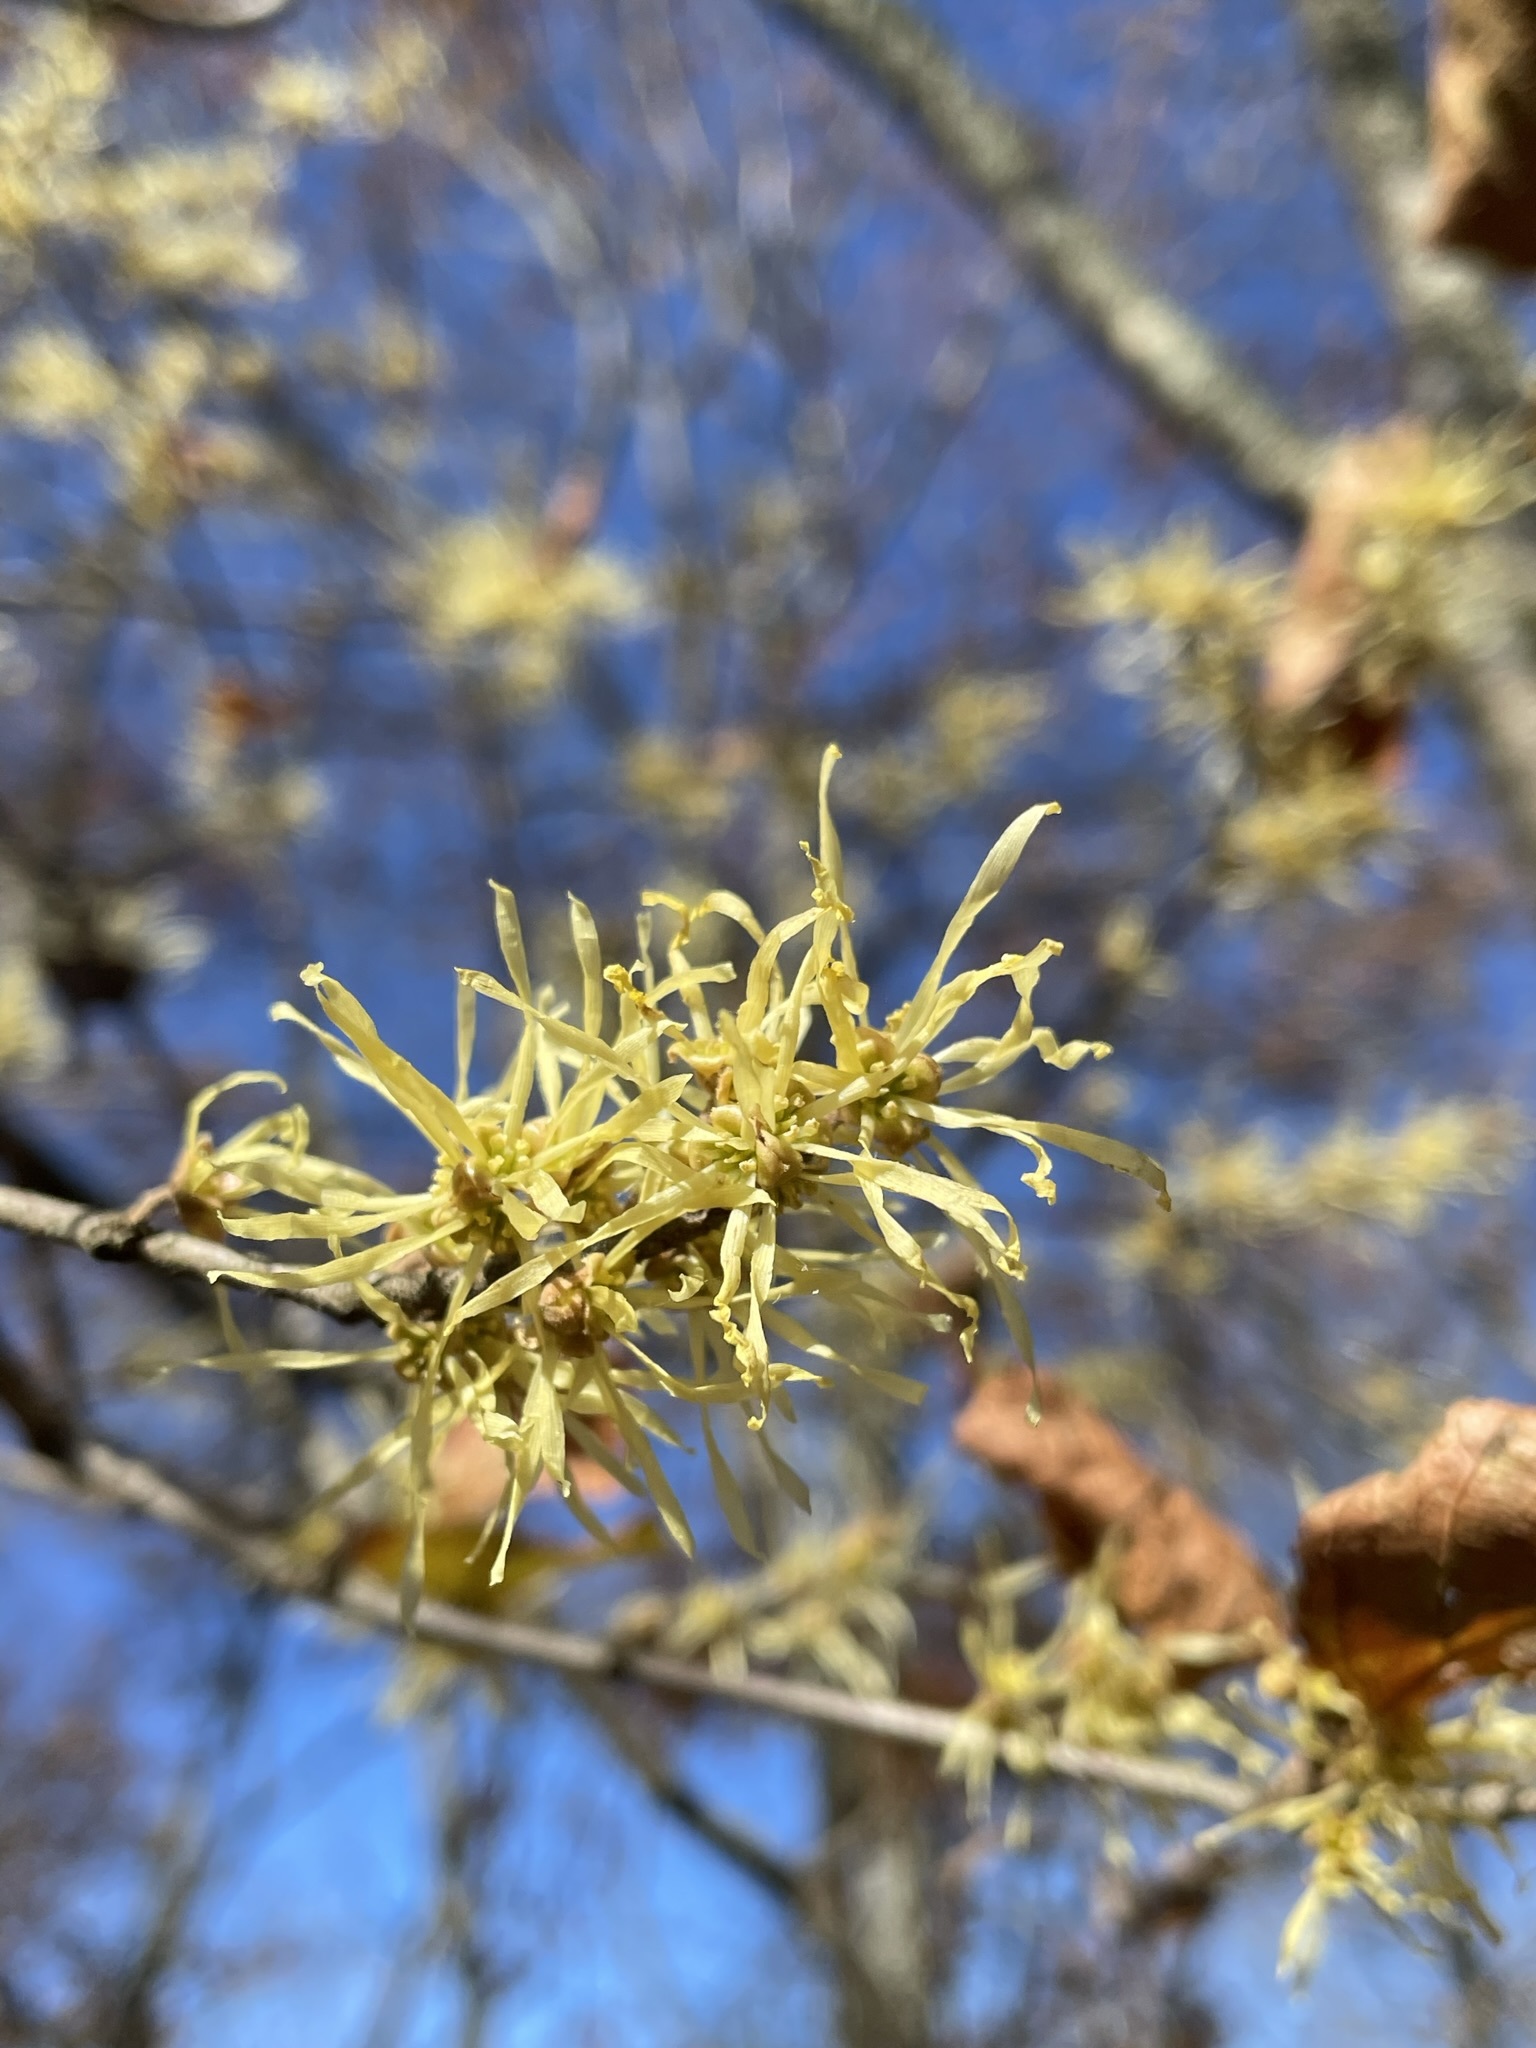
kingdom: Plantae
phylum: Tracheophyta
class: Magnoliopsida
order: Saxifragales
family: Hamamelidaceae
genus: Hamamelis
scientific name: Hamamelis virginiana
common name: Witch-hazel
